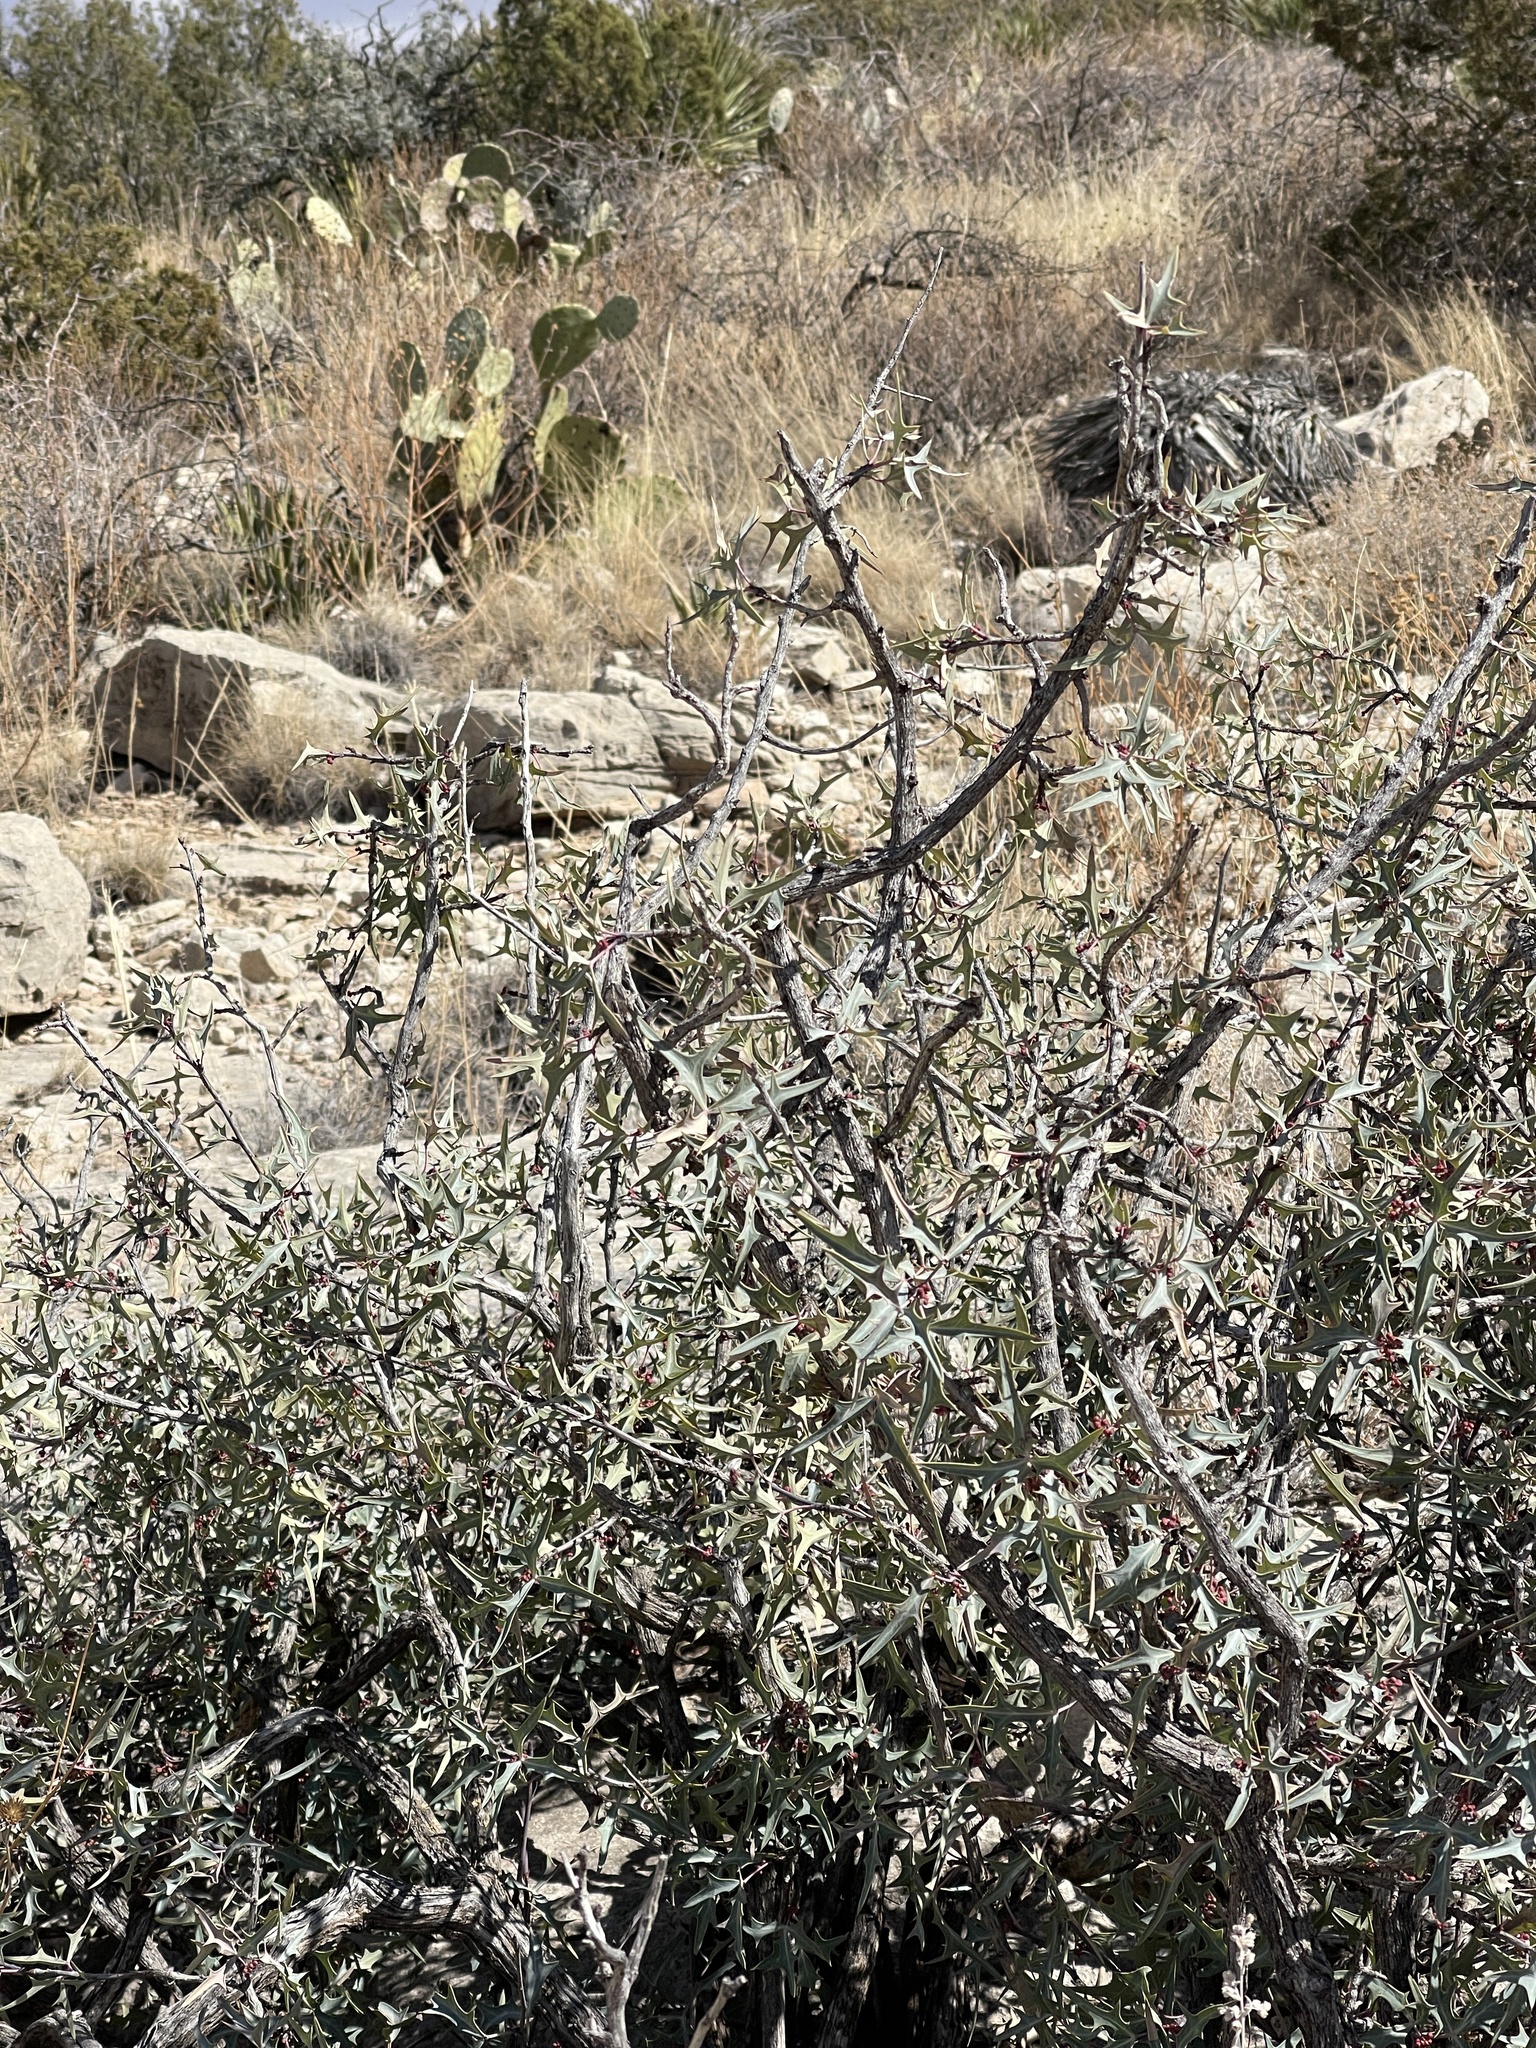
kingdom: Plantae
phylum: Tracheophyta
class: Magnoliopsida
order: Ranunculales
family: Berberidaceae
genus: Alloberberis
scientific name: Alloberberis trifoliolata
